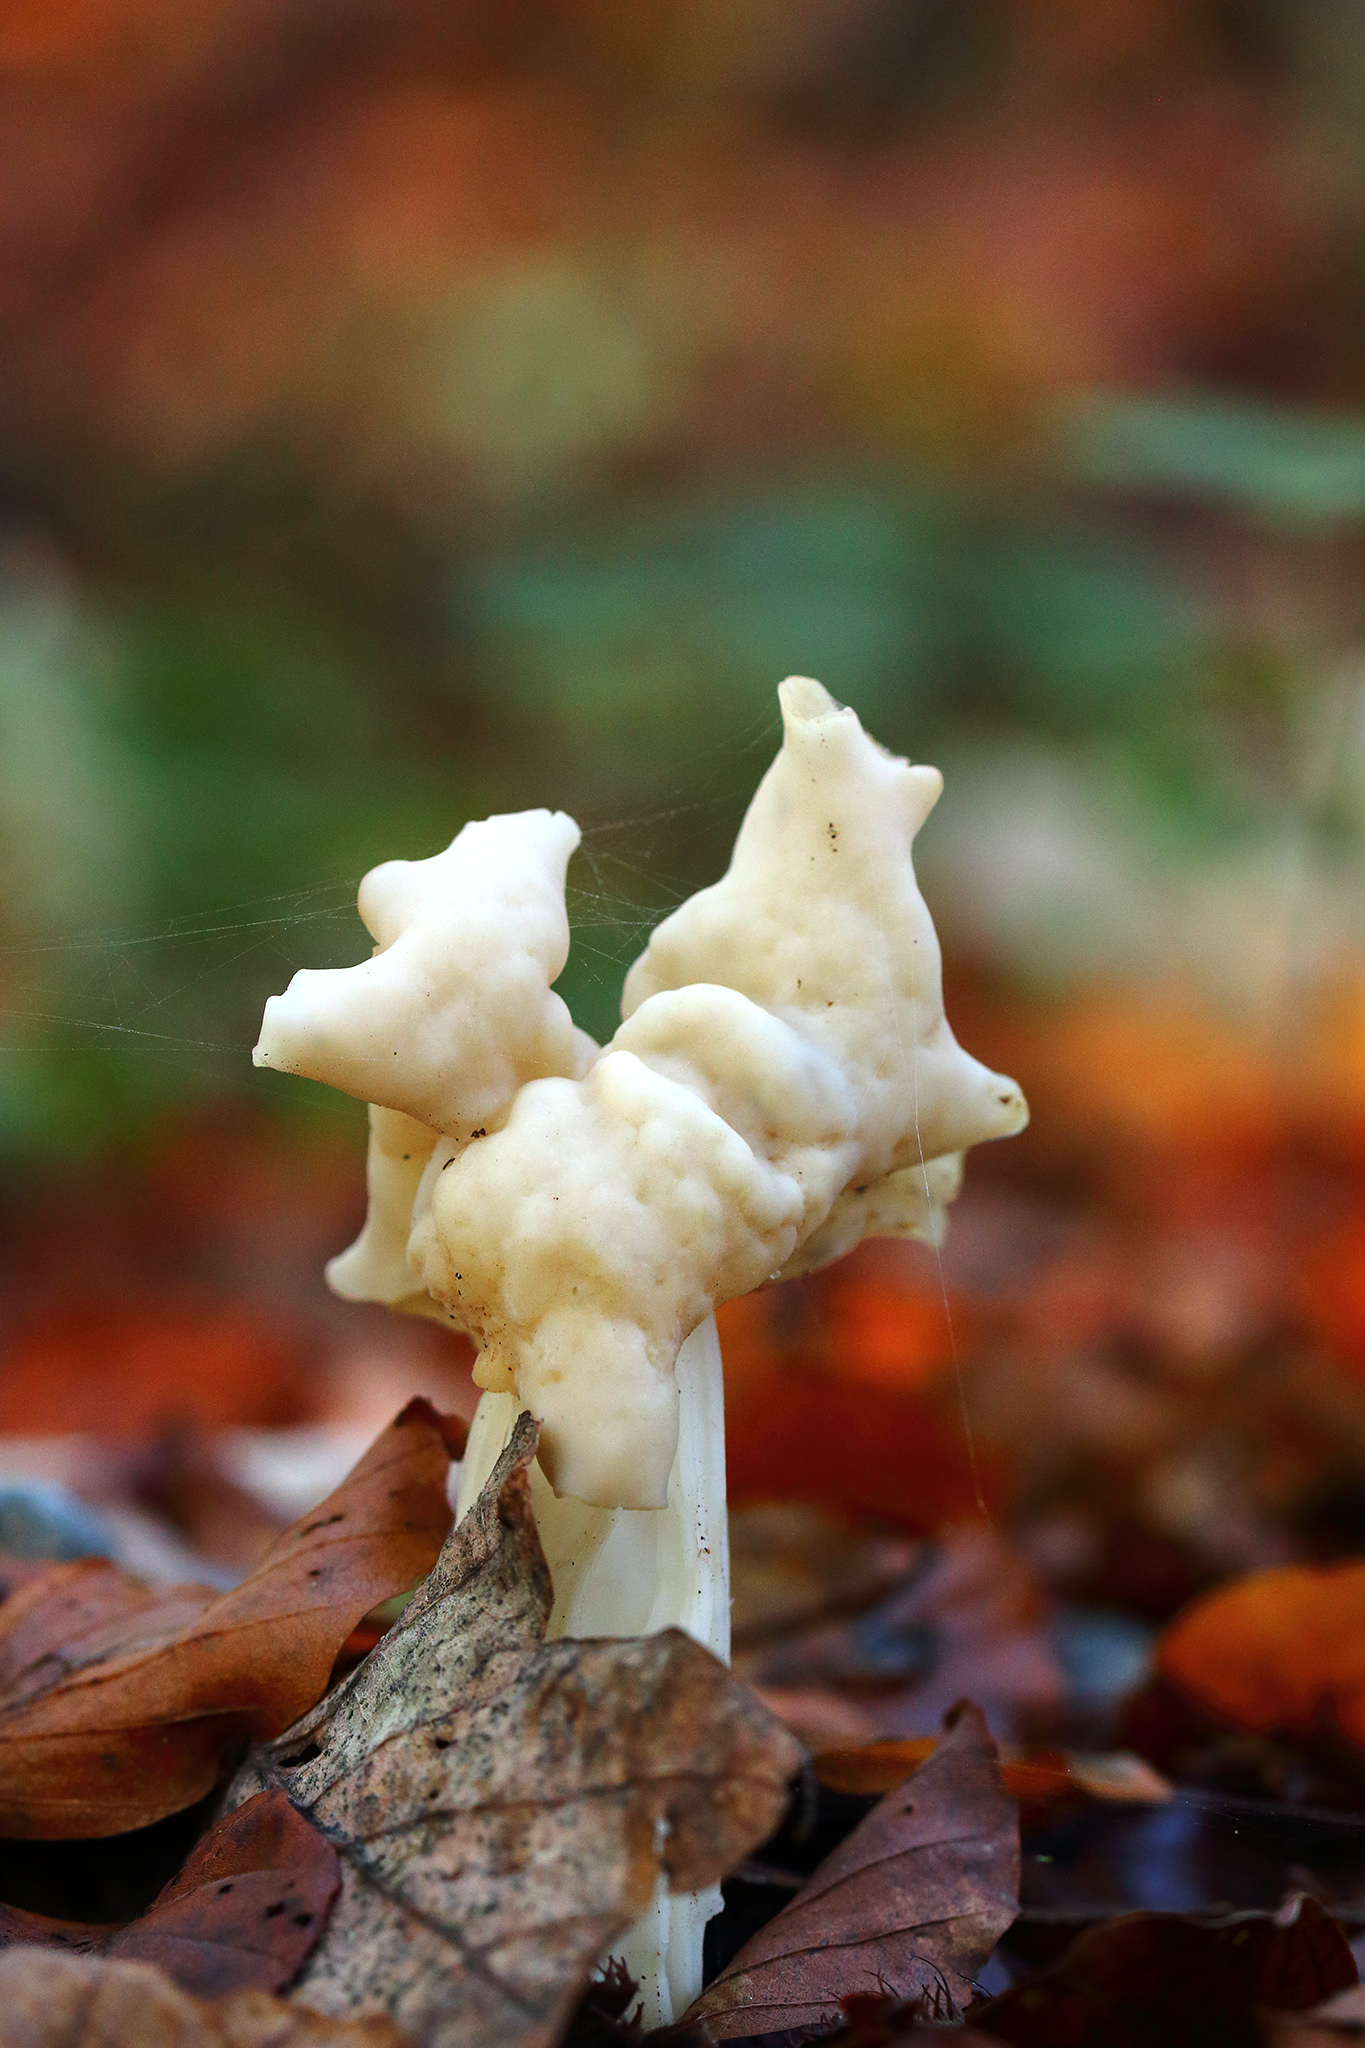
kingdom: Fungi
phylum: Ascomycota
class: Pezizomycetes
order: Pezizales
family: Helvellaceae
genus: Helvella
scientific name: Helvella crispa
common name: White saddle
